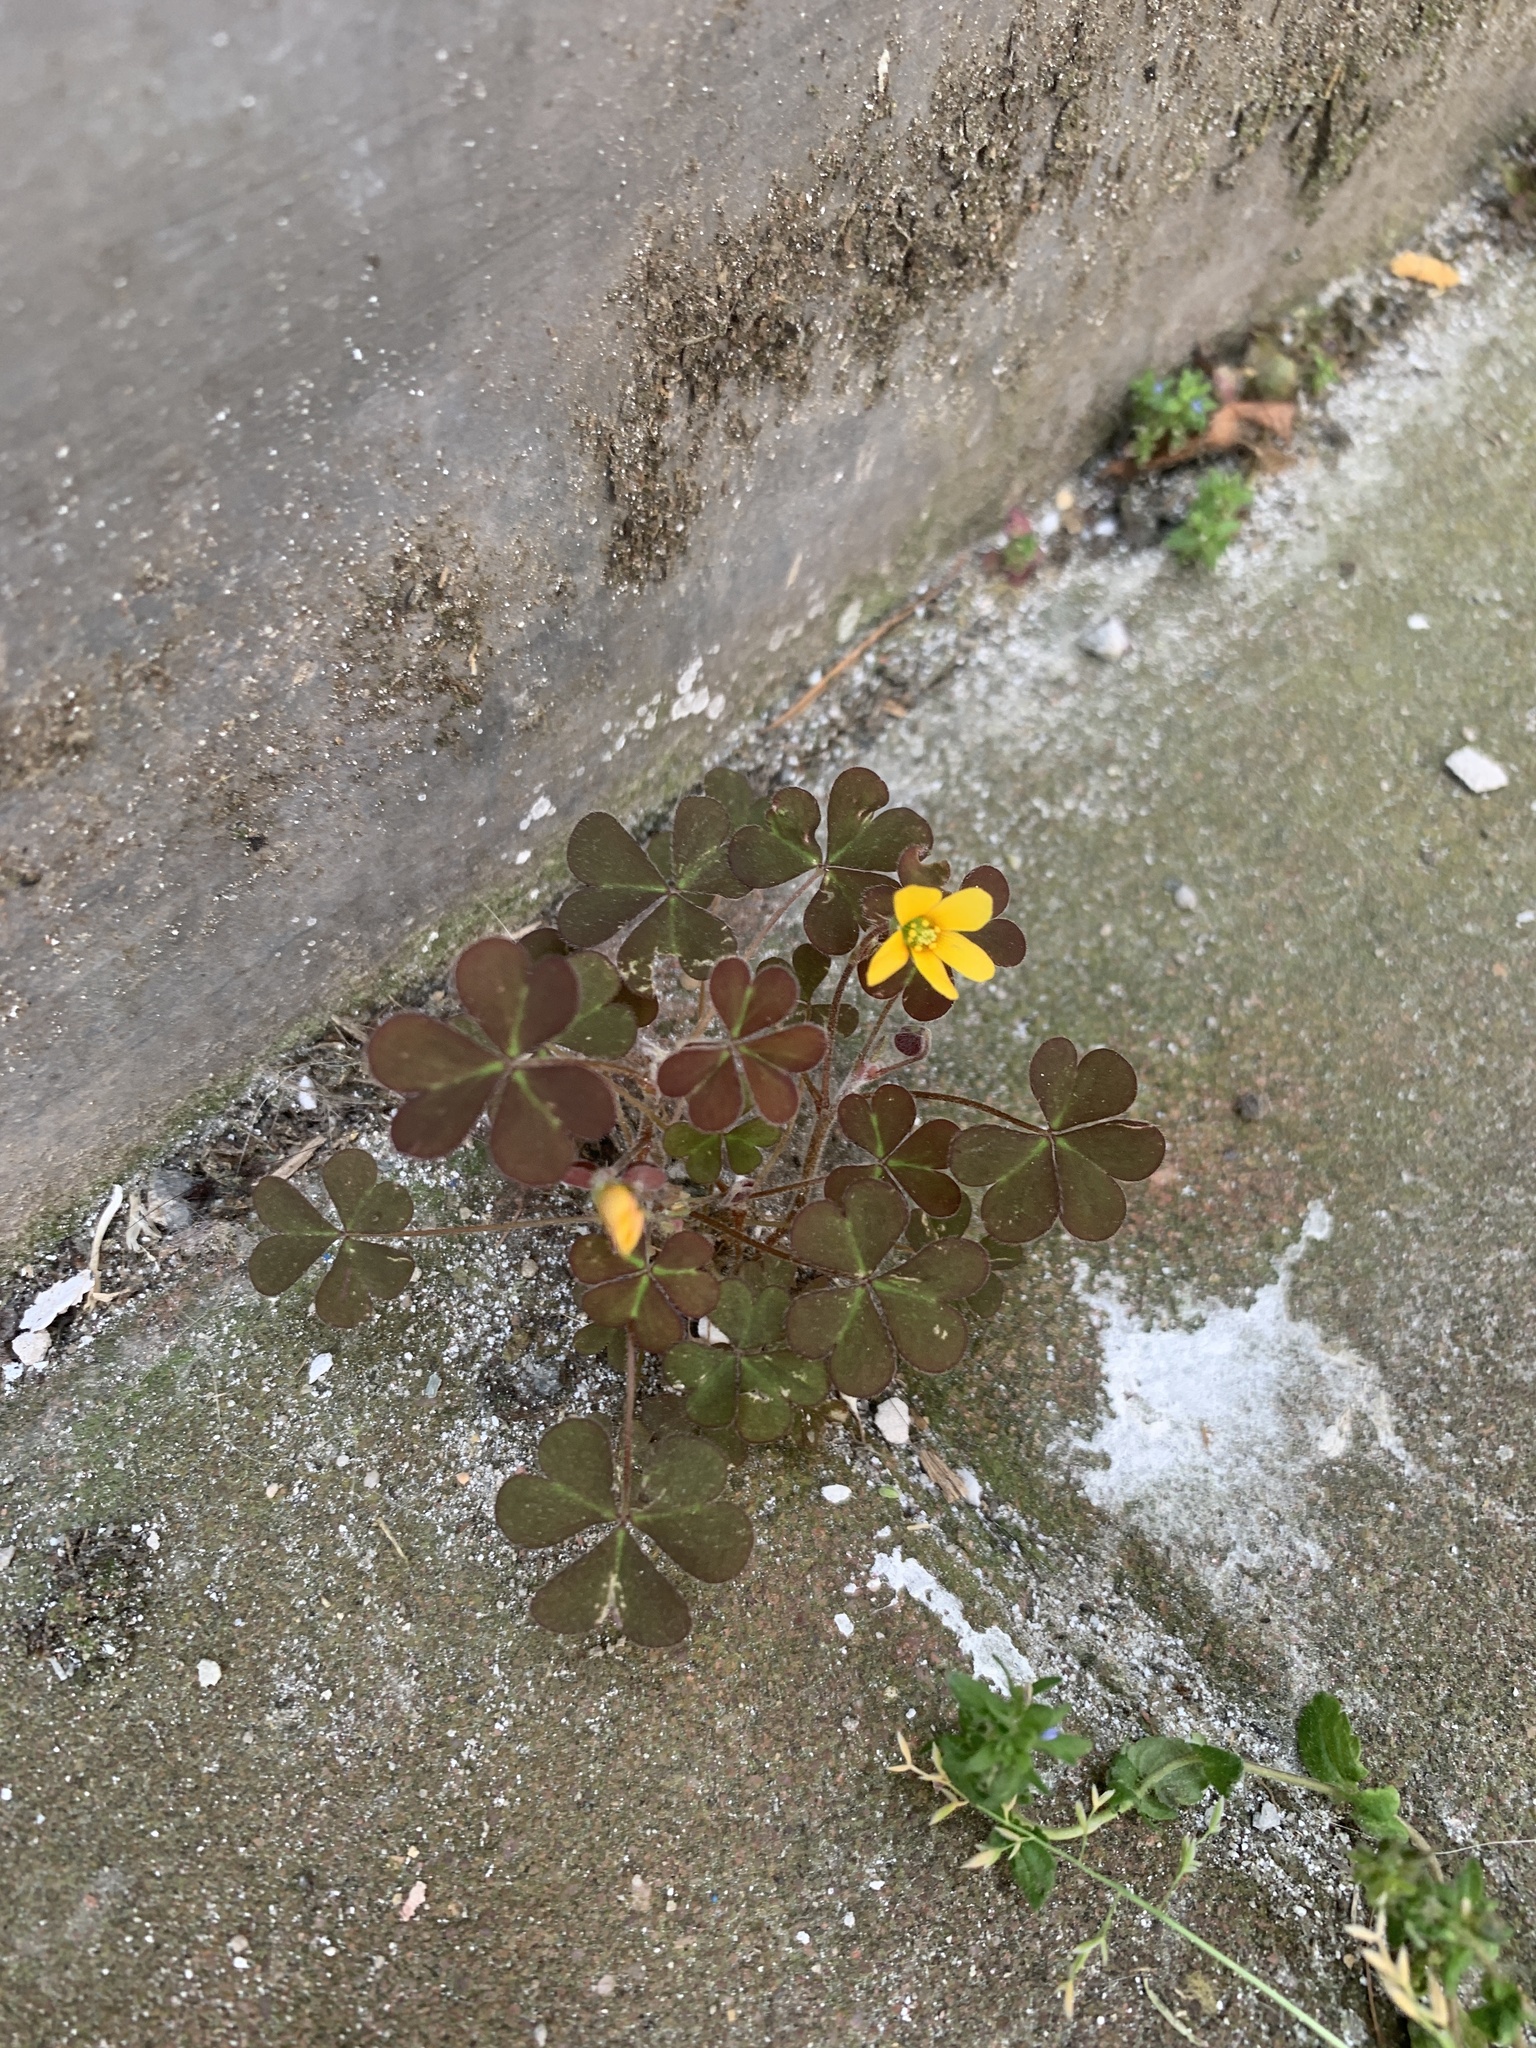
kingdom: Plantae
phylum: Tracheophyta
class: Magnoliopsida
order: Oxalidales
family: Oxalidaceae
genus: Oxalis
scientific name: Oxalis corniculata
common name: Procumbent yellow-sorrel
